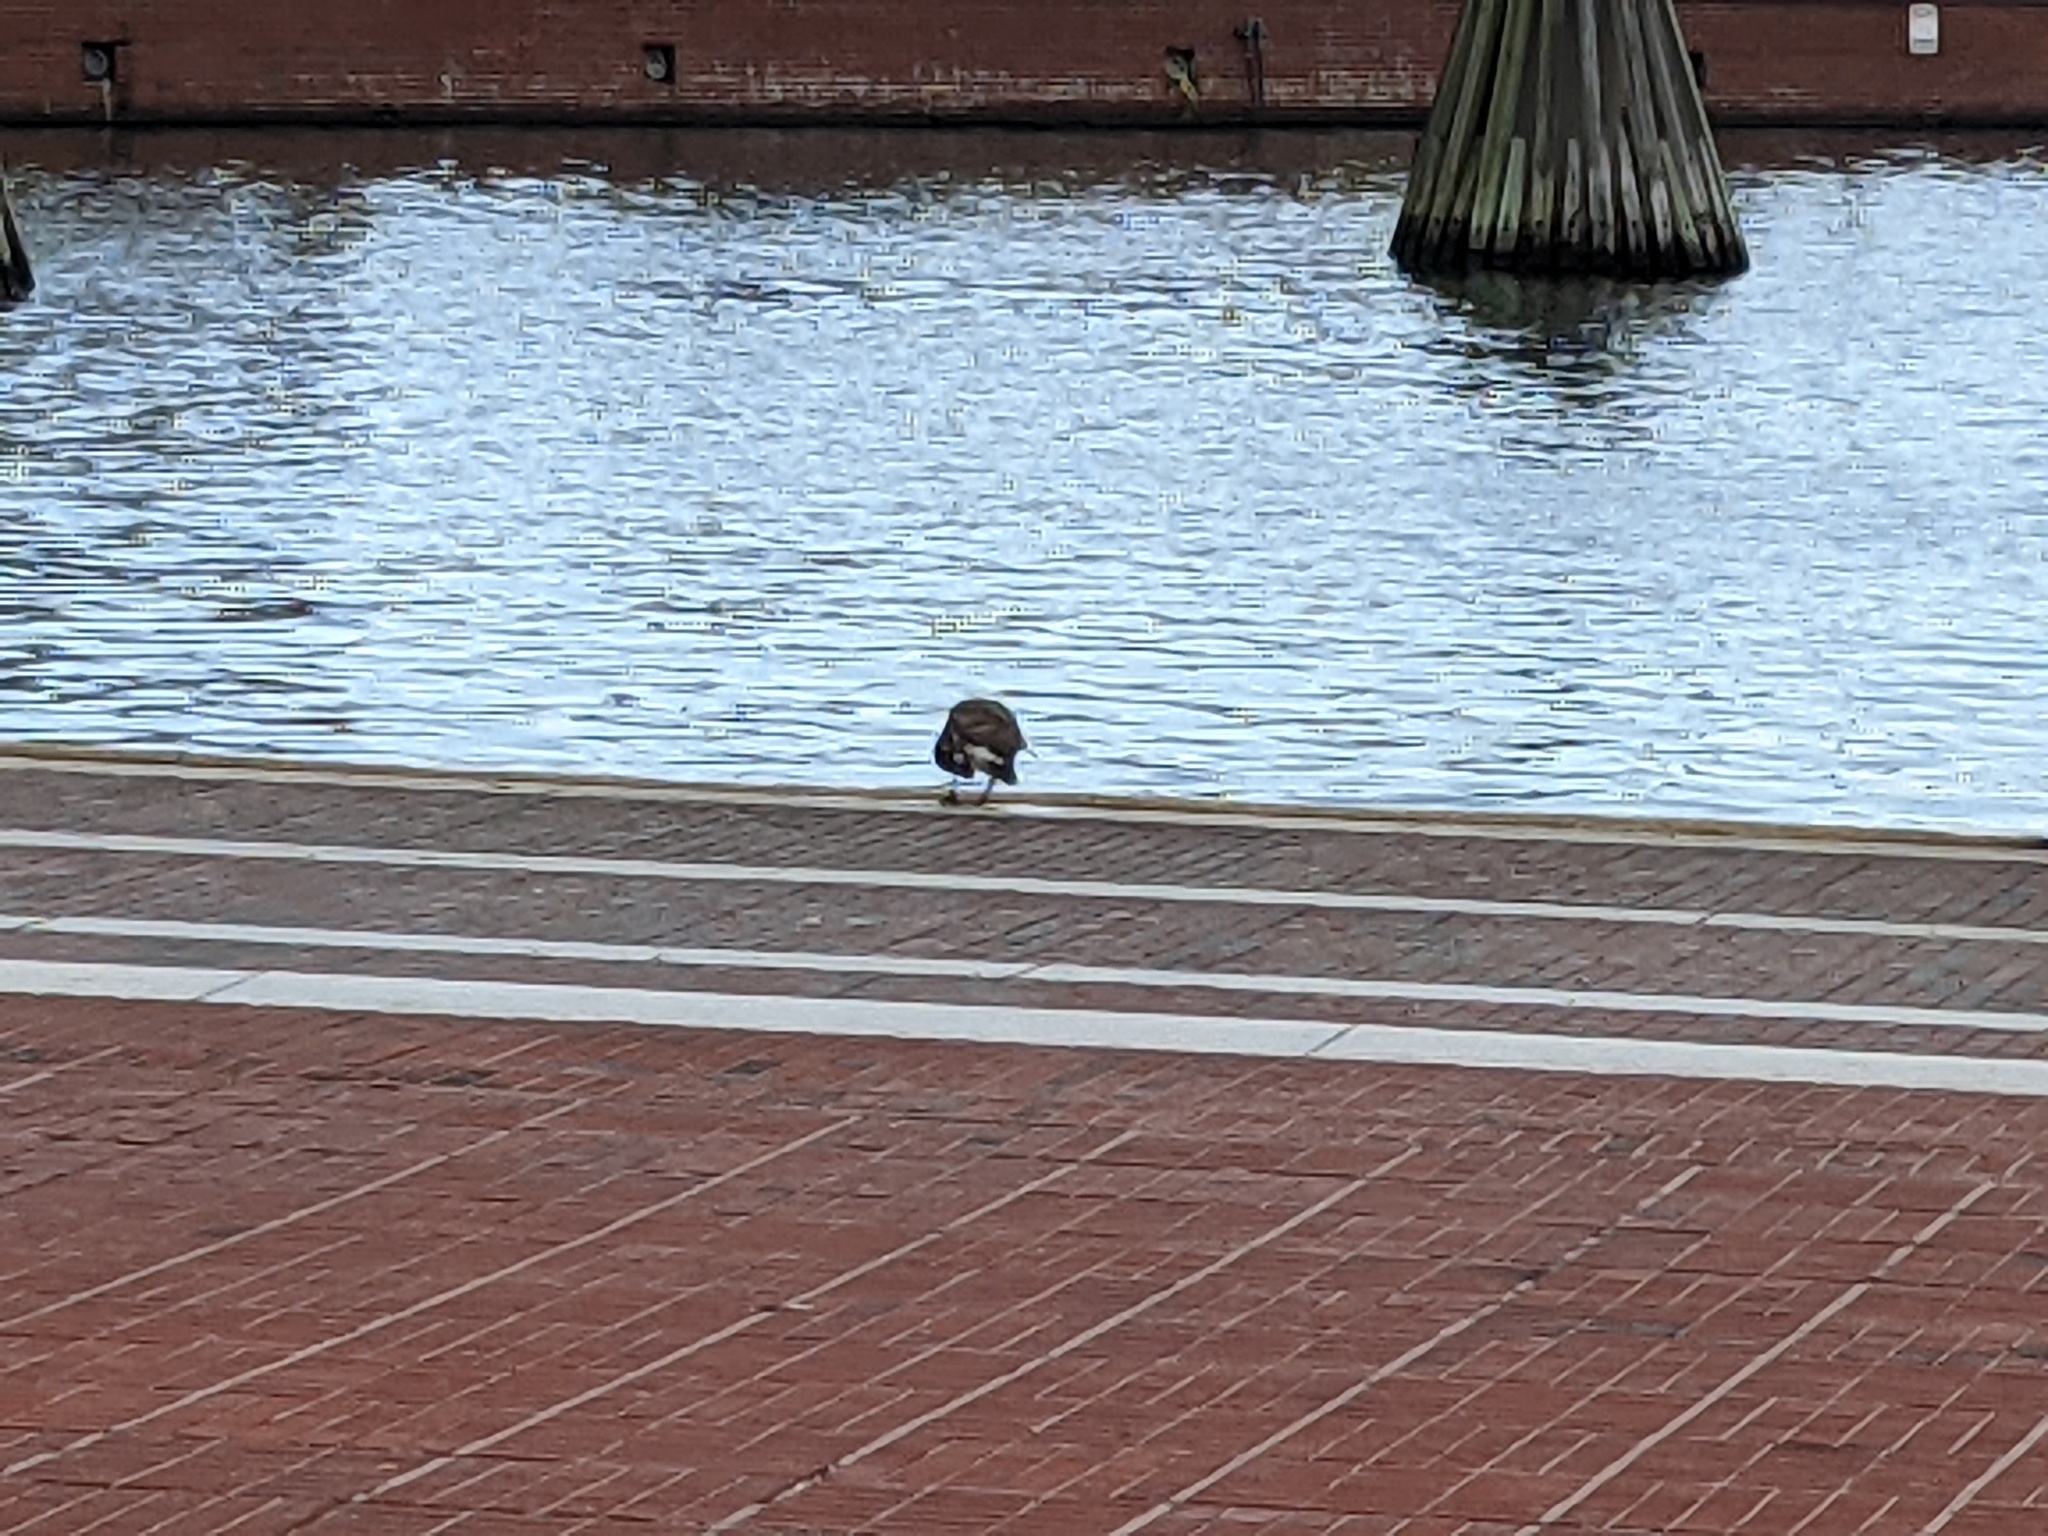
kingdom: Animalia
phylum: Chordata
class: Aves
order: Anseriformes
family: Anatidae
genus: Branta
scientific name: Branta canadensis
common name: Canada goose
